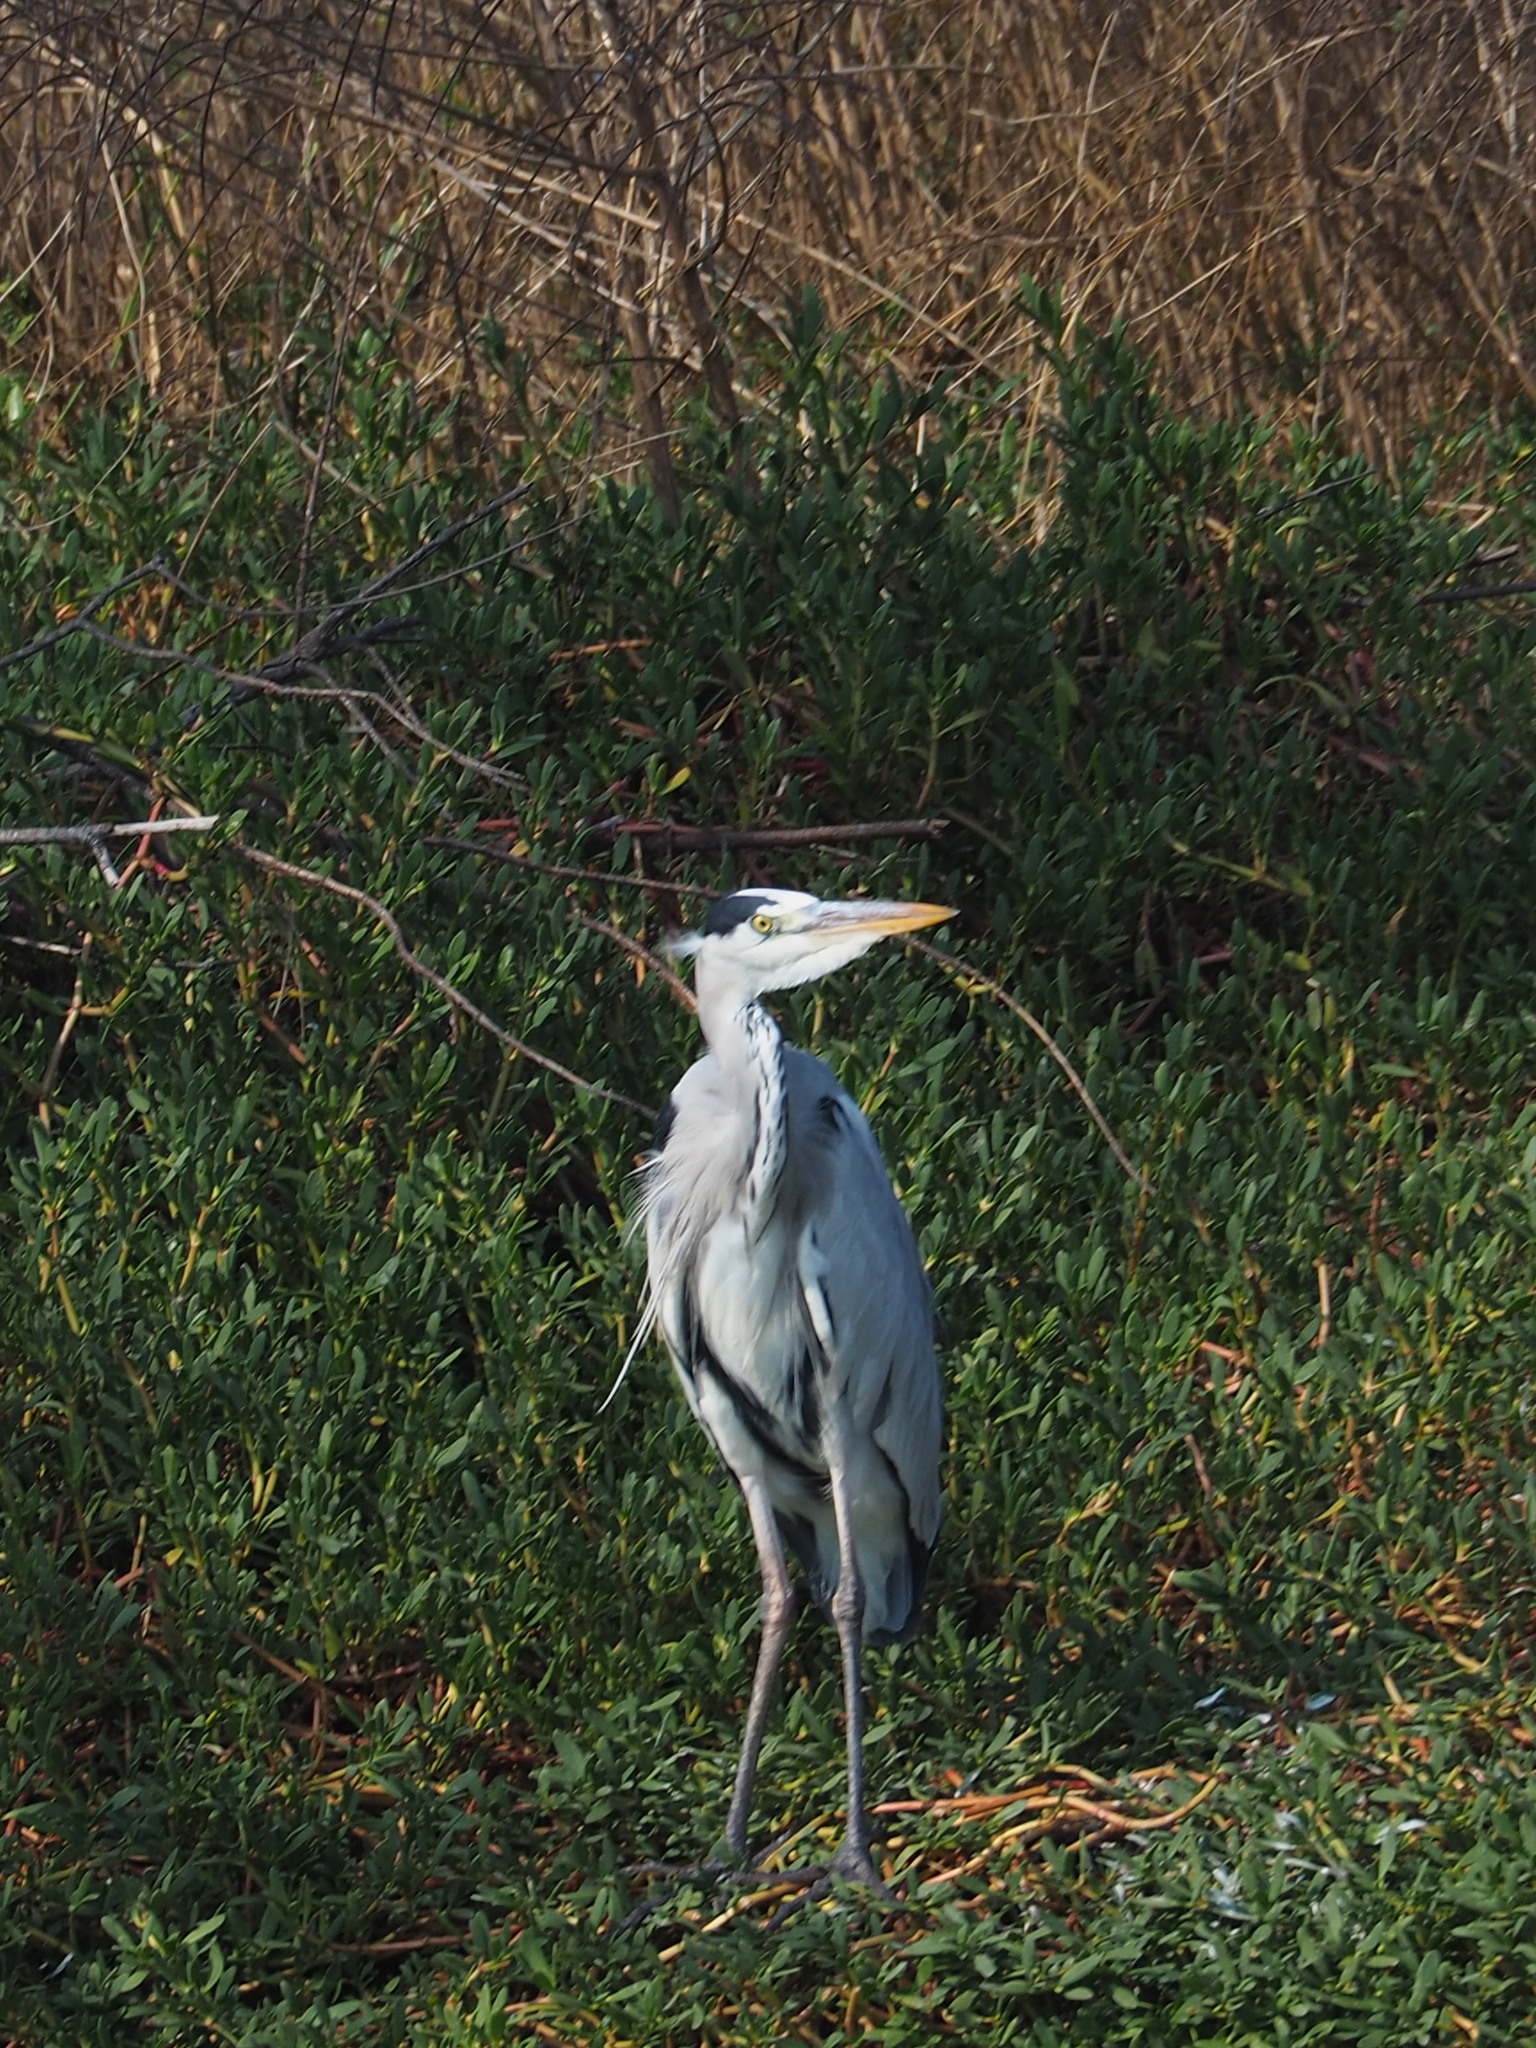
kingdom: Animalia
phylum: Chordata
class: Aves
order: Pelecaniformes
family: Ardeidae
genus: Ardea
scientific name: Ardea cinerea
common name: Grey heron
